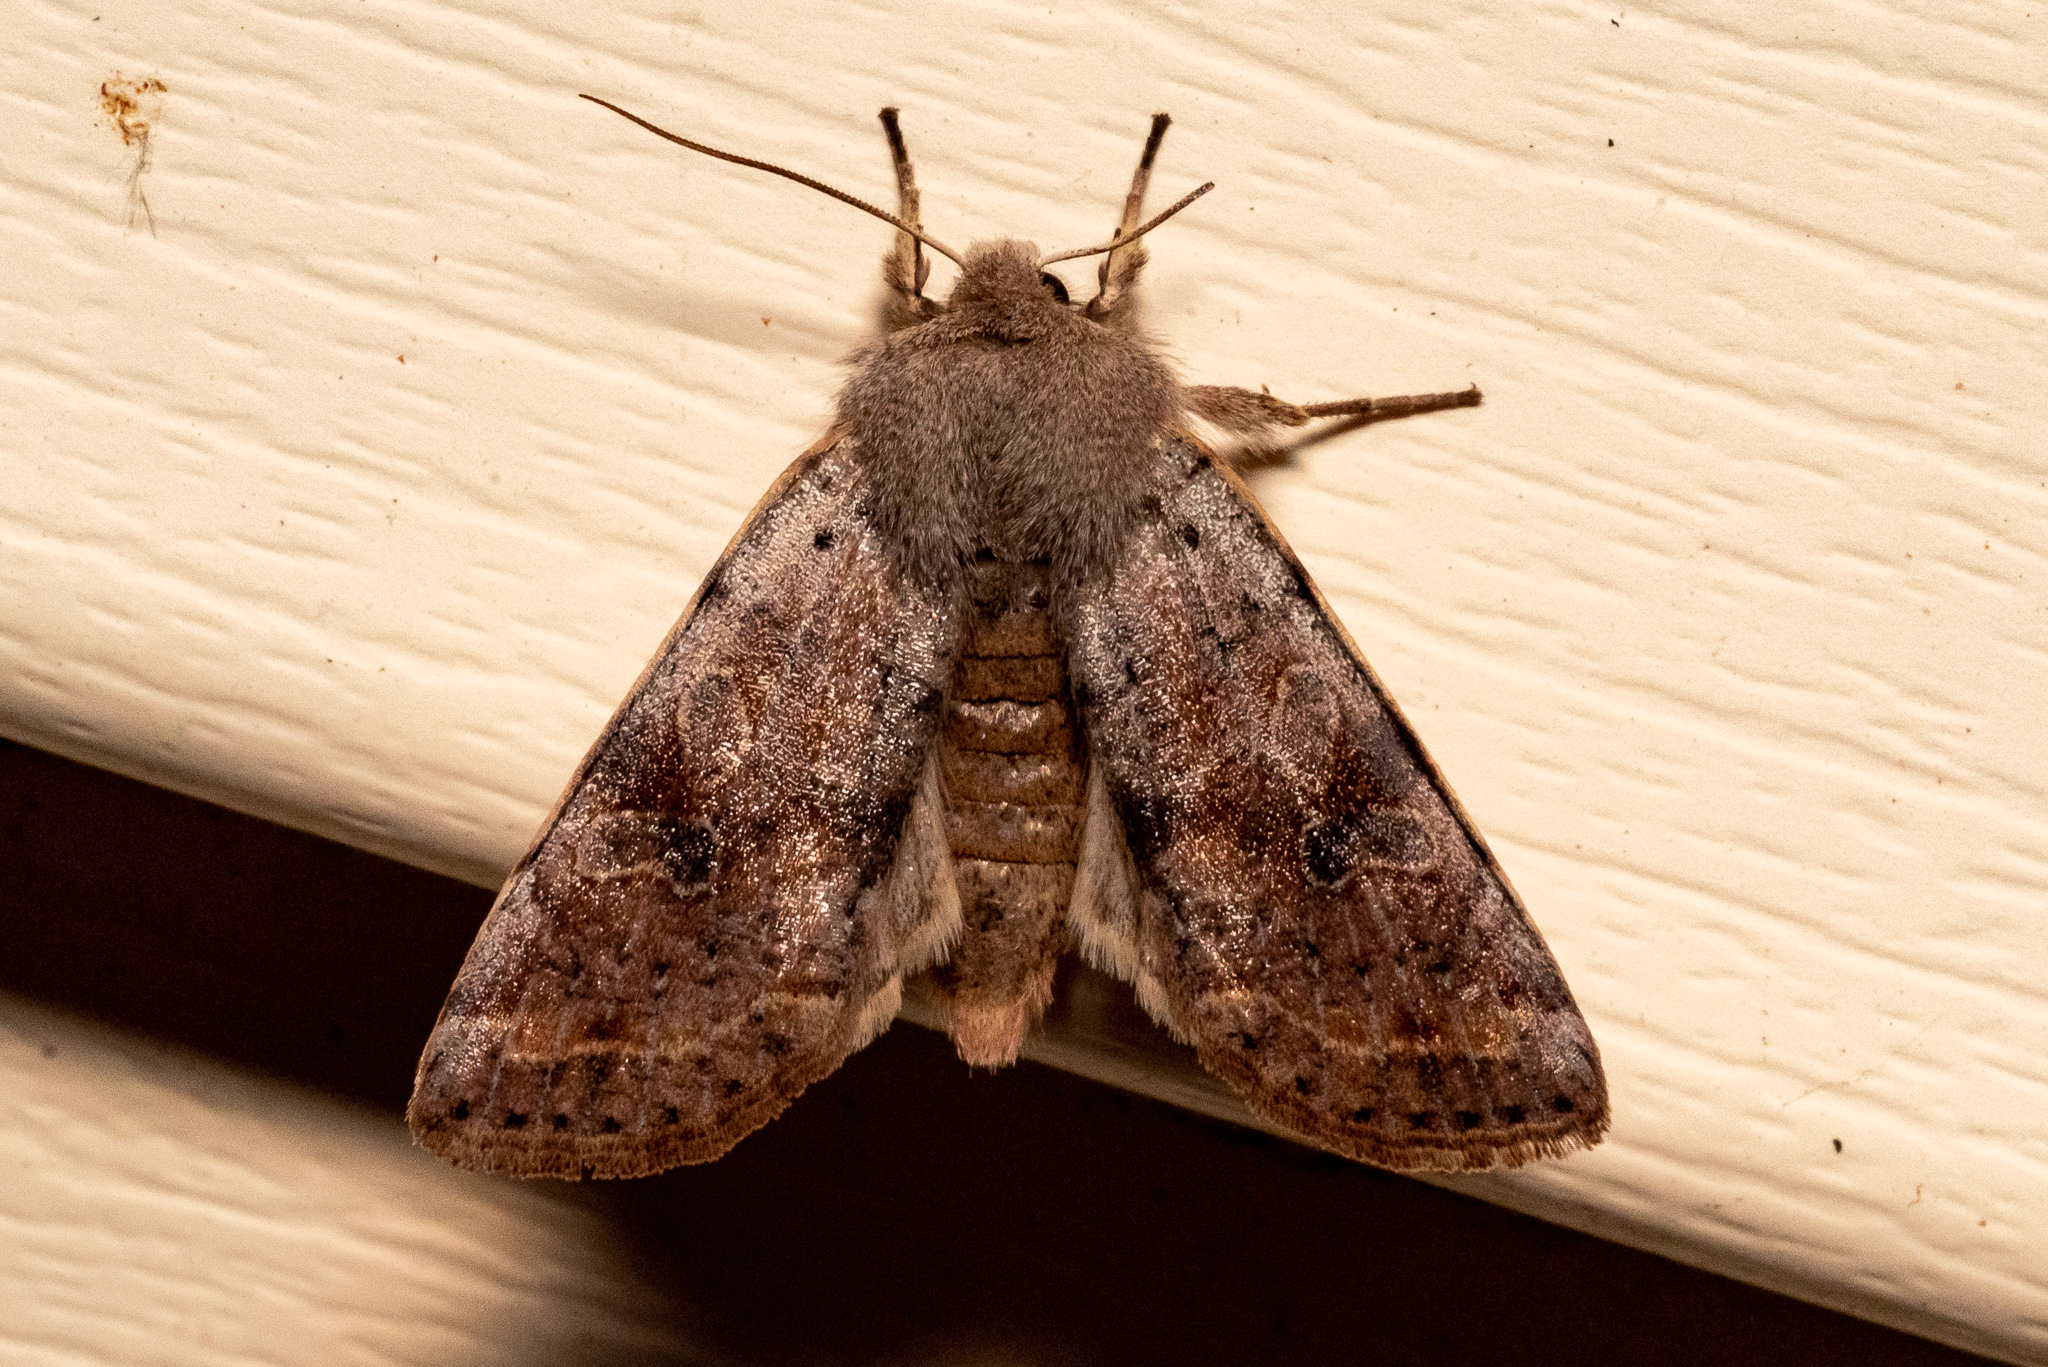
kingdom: Animalia
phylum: Arthropoda
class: Insecta
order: Lepidoptera
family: Noctuidae
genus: Orthosia
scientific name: Orthosia hibisci
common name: Green fruitworm
